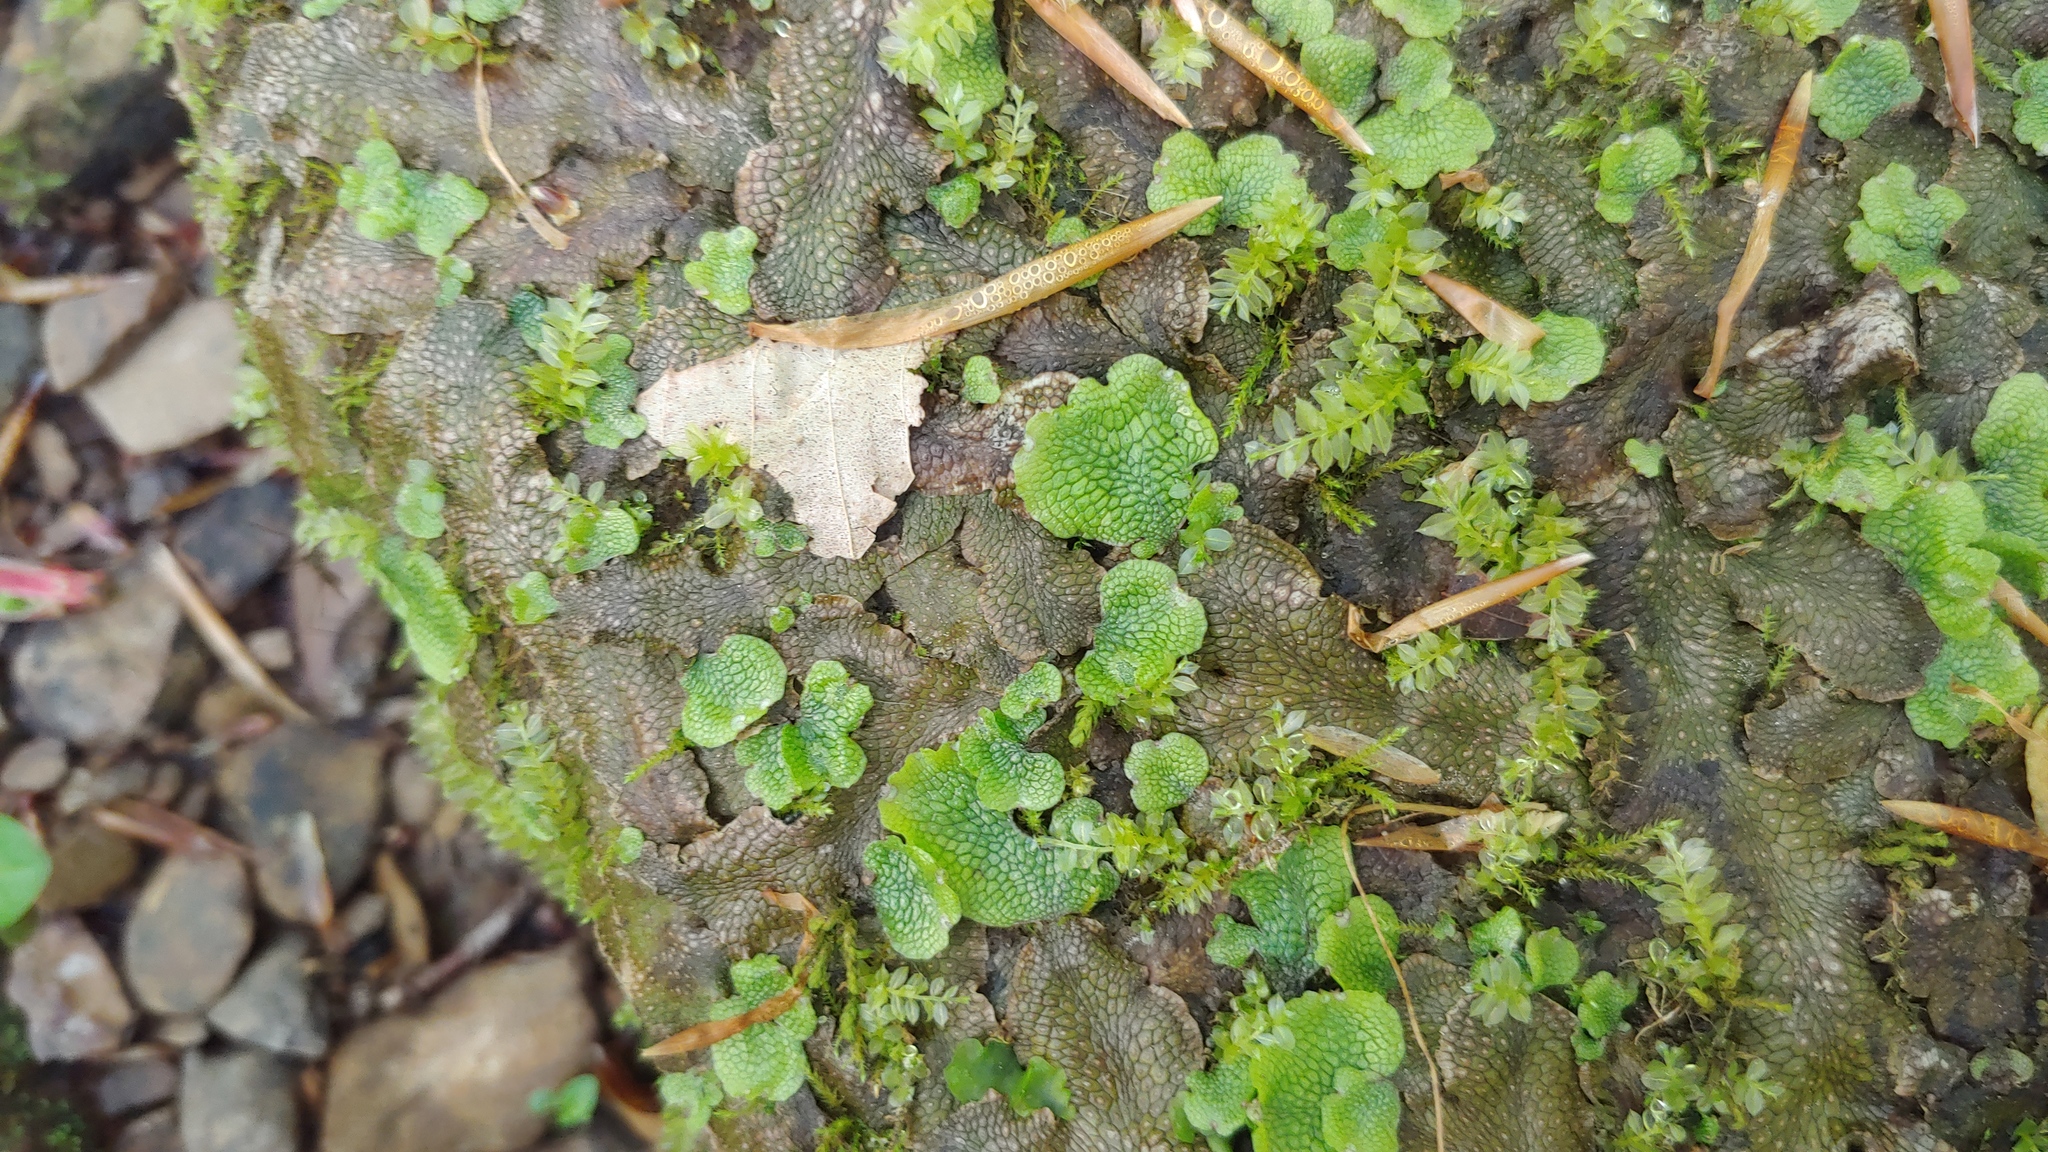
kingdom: Plantae
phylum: Marchantiophyta
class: Marchantiopsida
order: Marchantiales
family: Conocephalaceae
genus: Conocephalum
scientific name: Conocephalum salebrosum
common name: Cat-tongue liverwort
